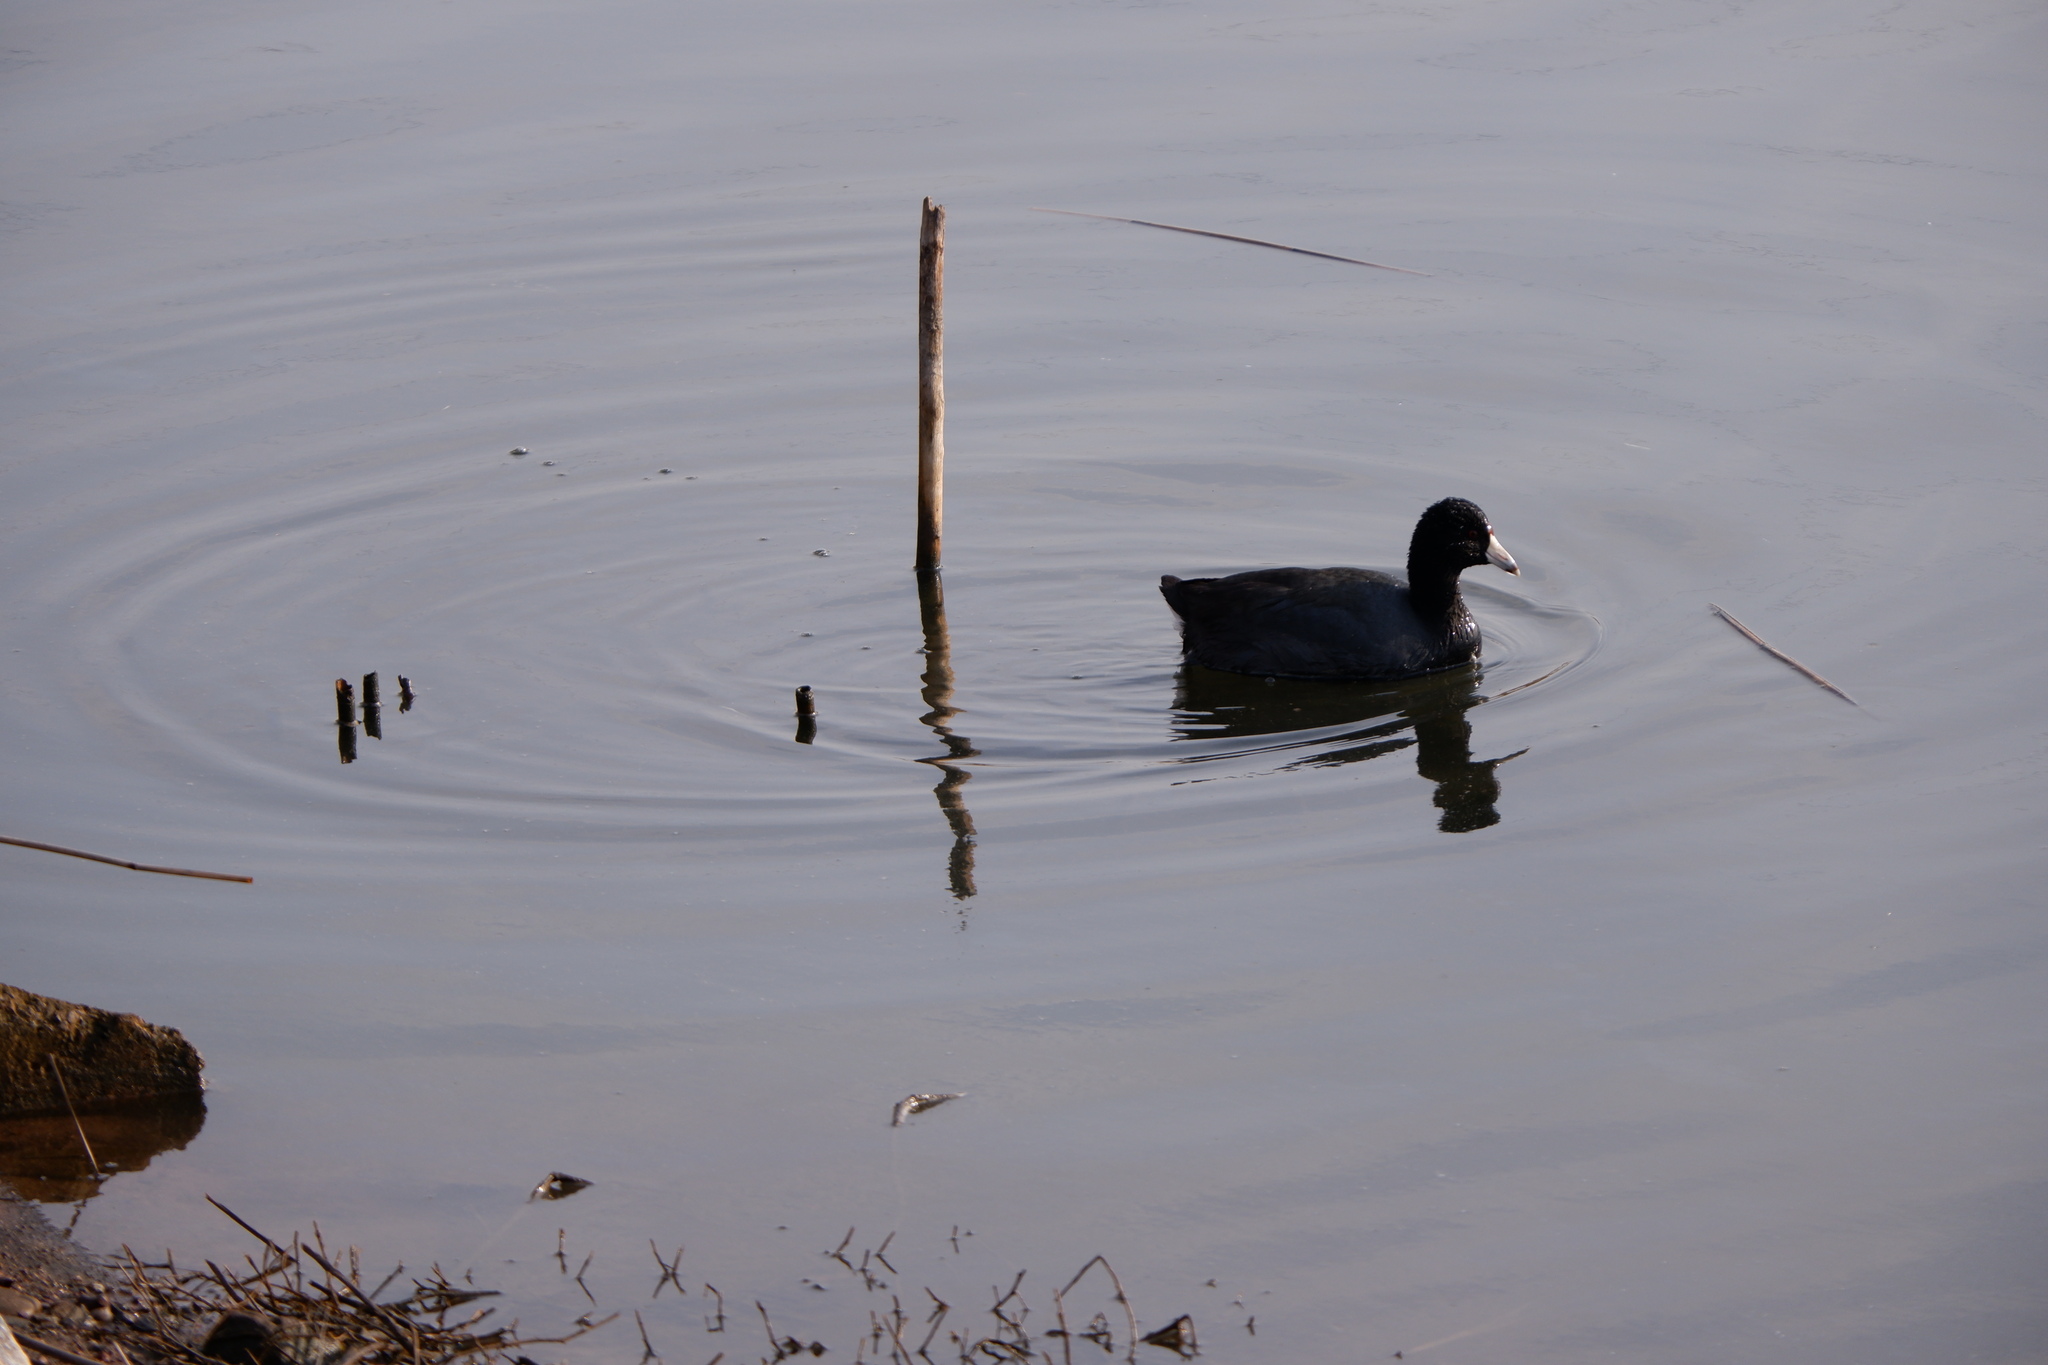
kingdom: Animalia
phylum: Chordata
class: Aves
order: Gruiformes
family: Rallidae
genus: Fulica
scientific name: Fulica americana
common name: American coot
